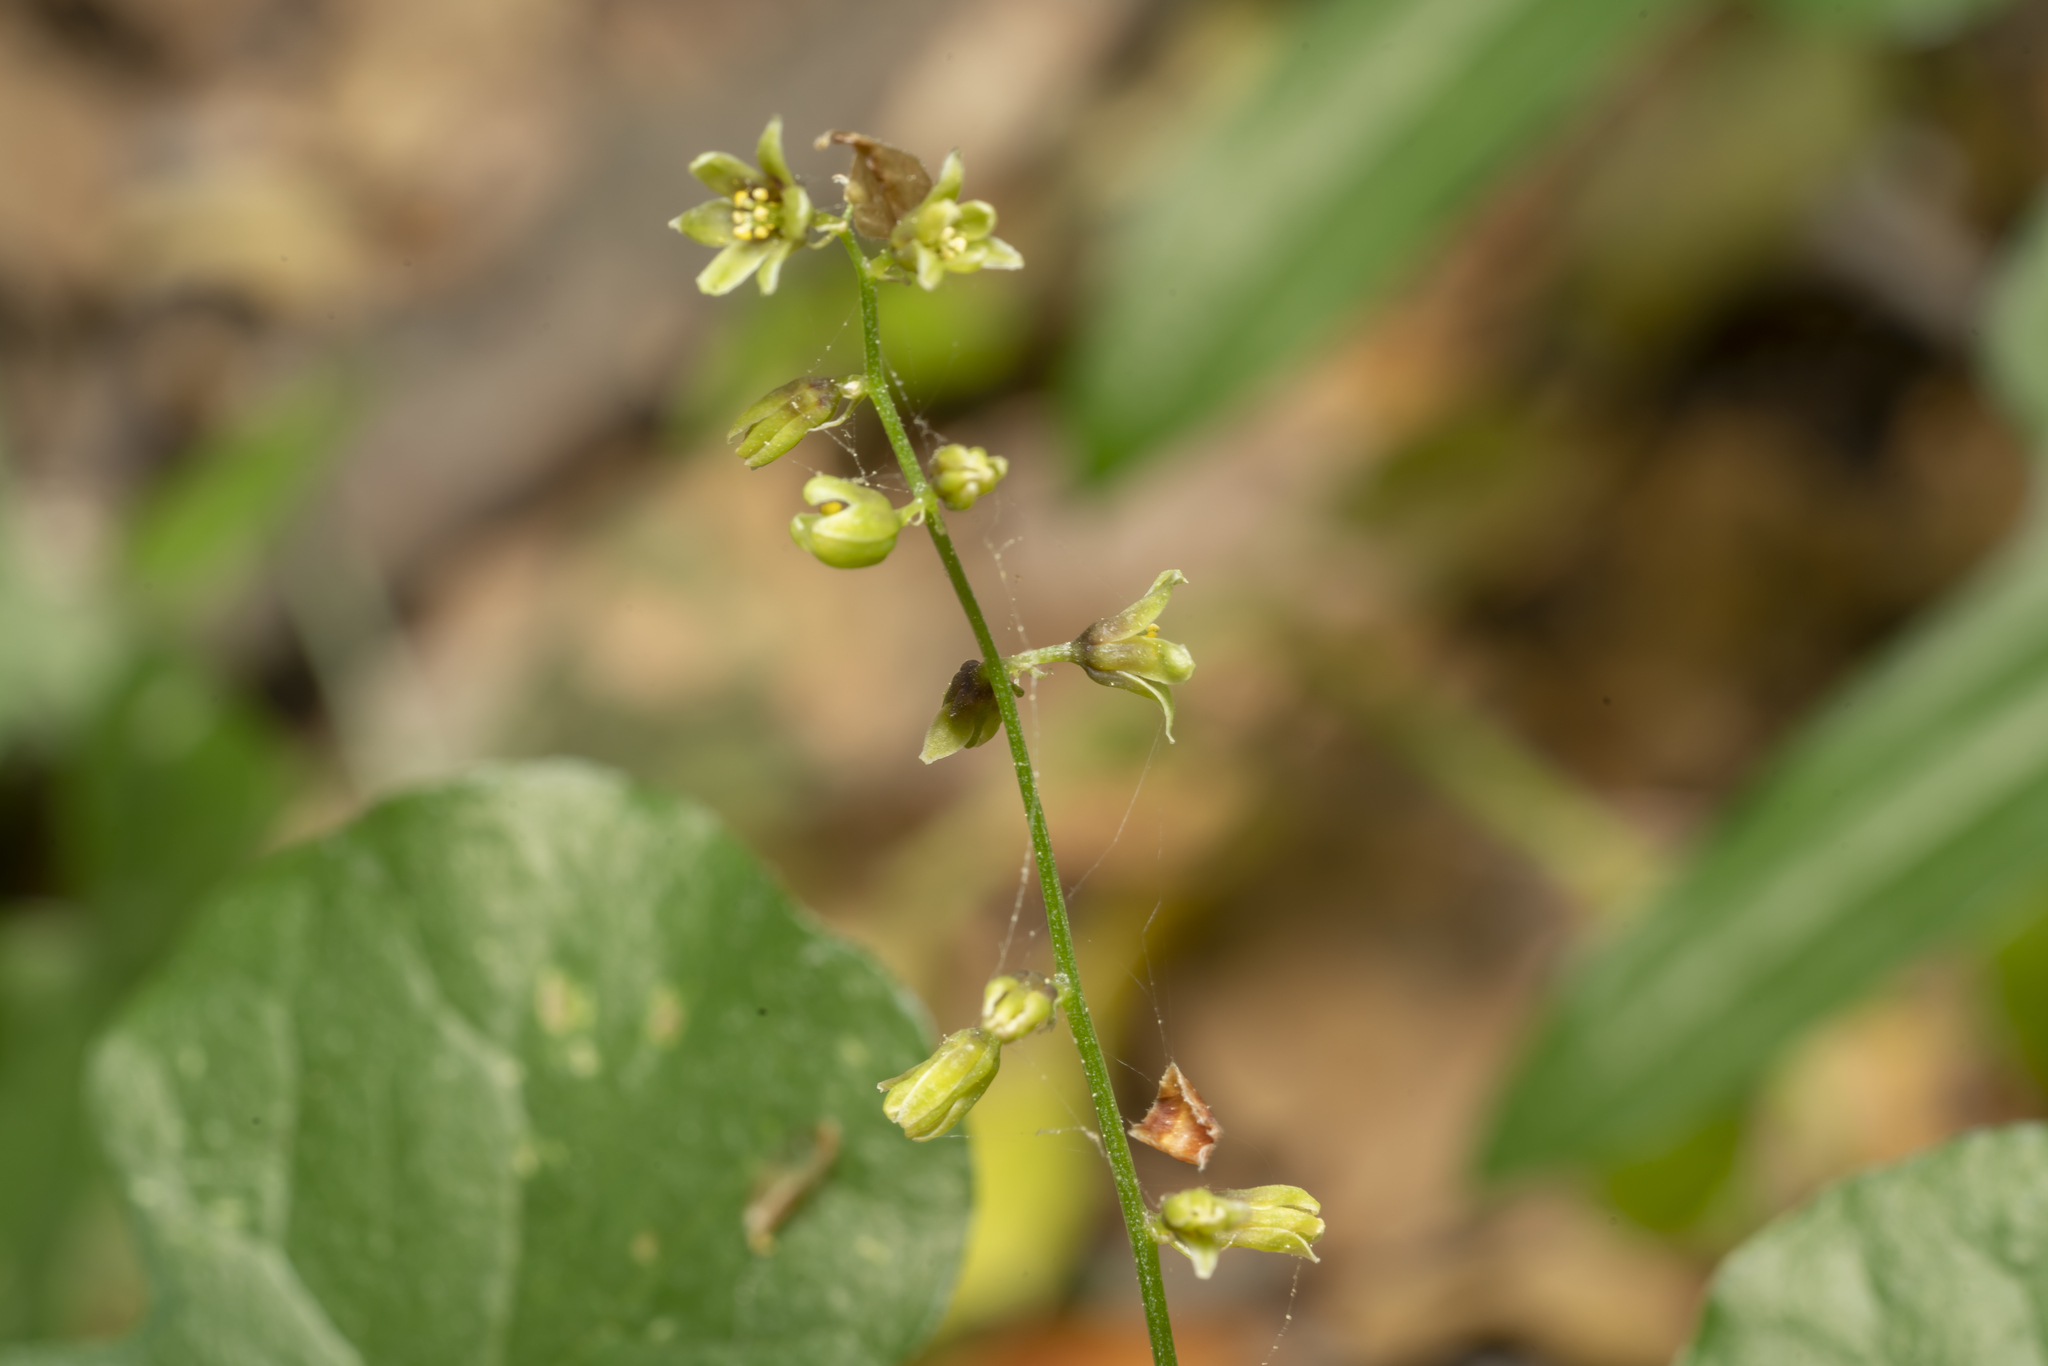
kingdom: Plantae
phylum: Tracheophyta
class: Liliopsida
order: Dioscoreales
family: Dioscoreaceae
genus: Dioscorea
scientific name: Dioscorea communis
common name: Black-bindweed
